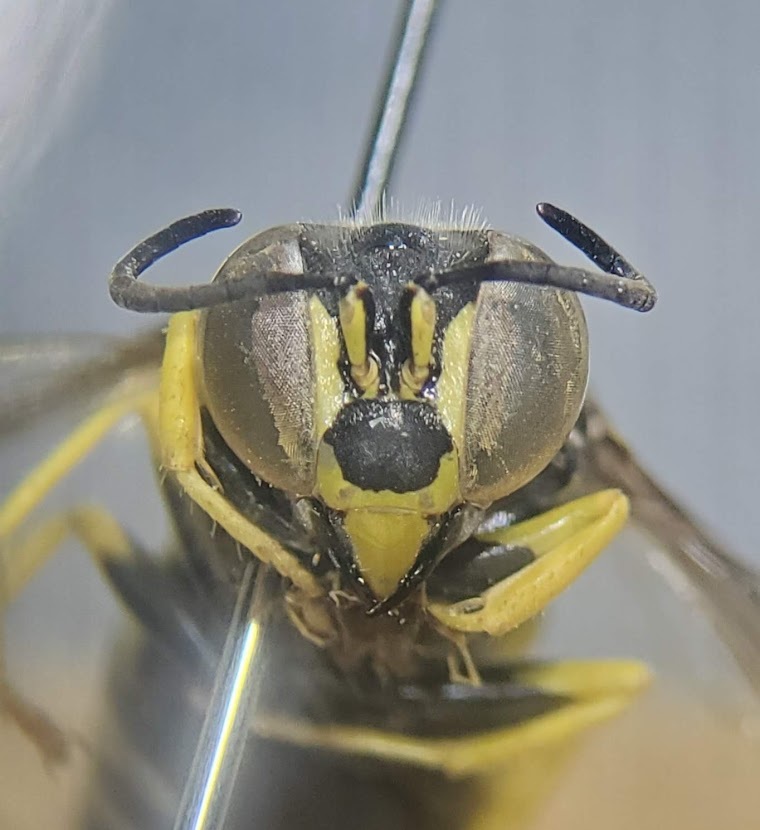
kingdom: Animalia
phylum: Arthropoda
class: Insecta
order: Hymenoptera
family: Crabronidae
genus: Bicyrtes
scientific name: Bicyrtes quadrifasciatus
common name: Four-banded stink bug hunter wasp
